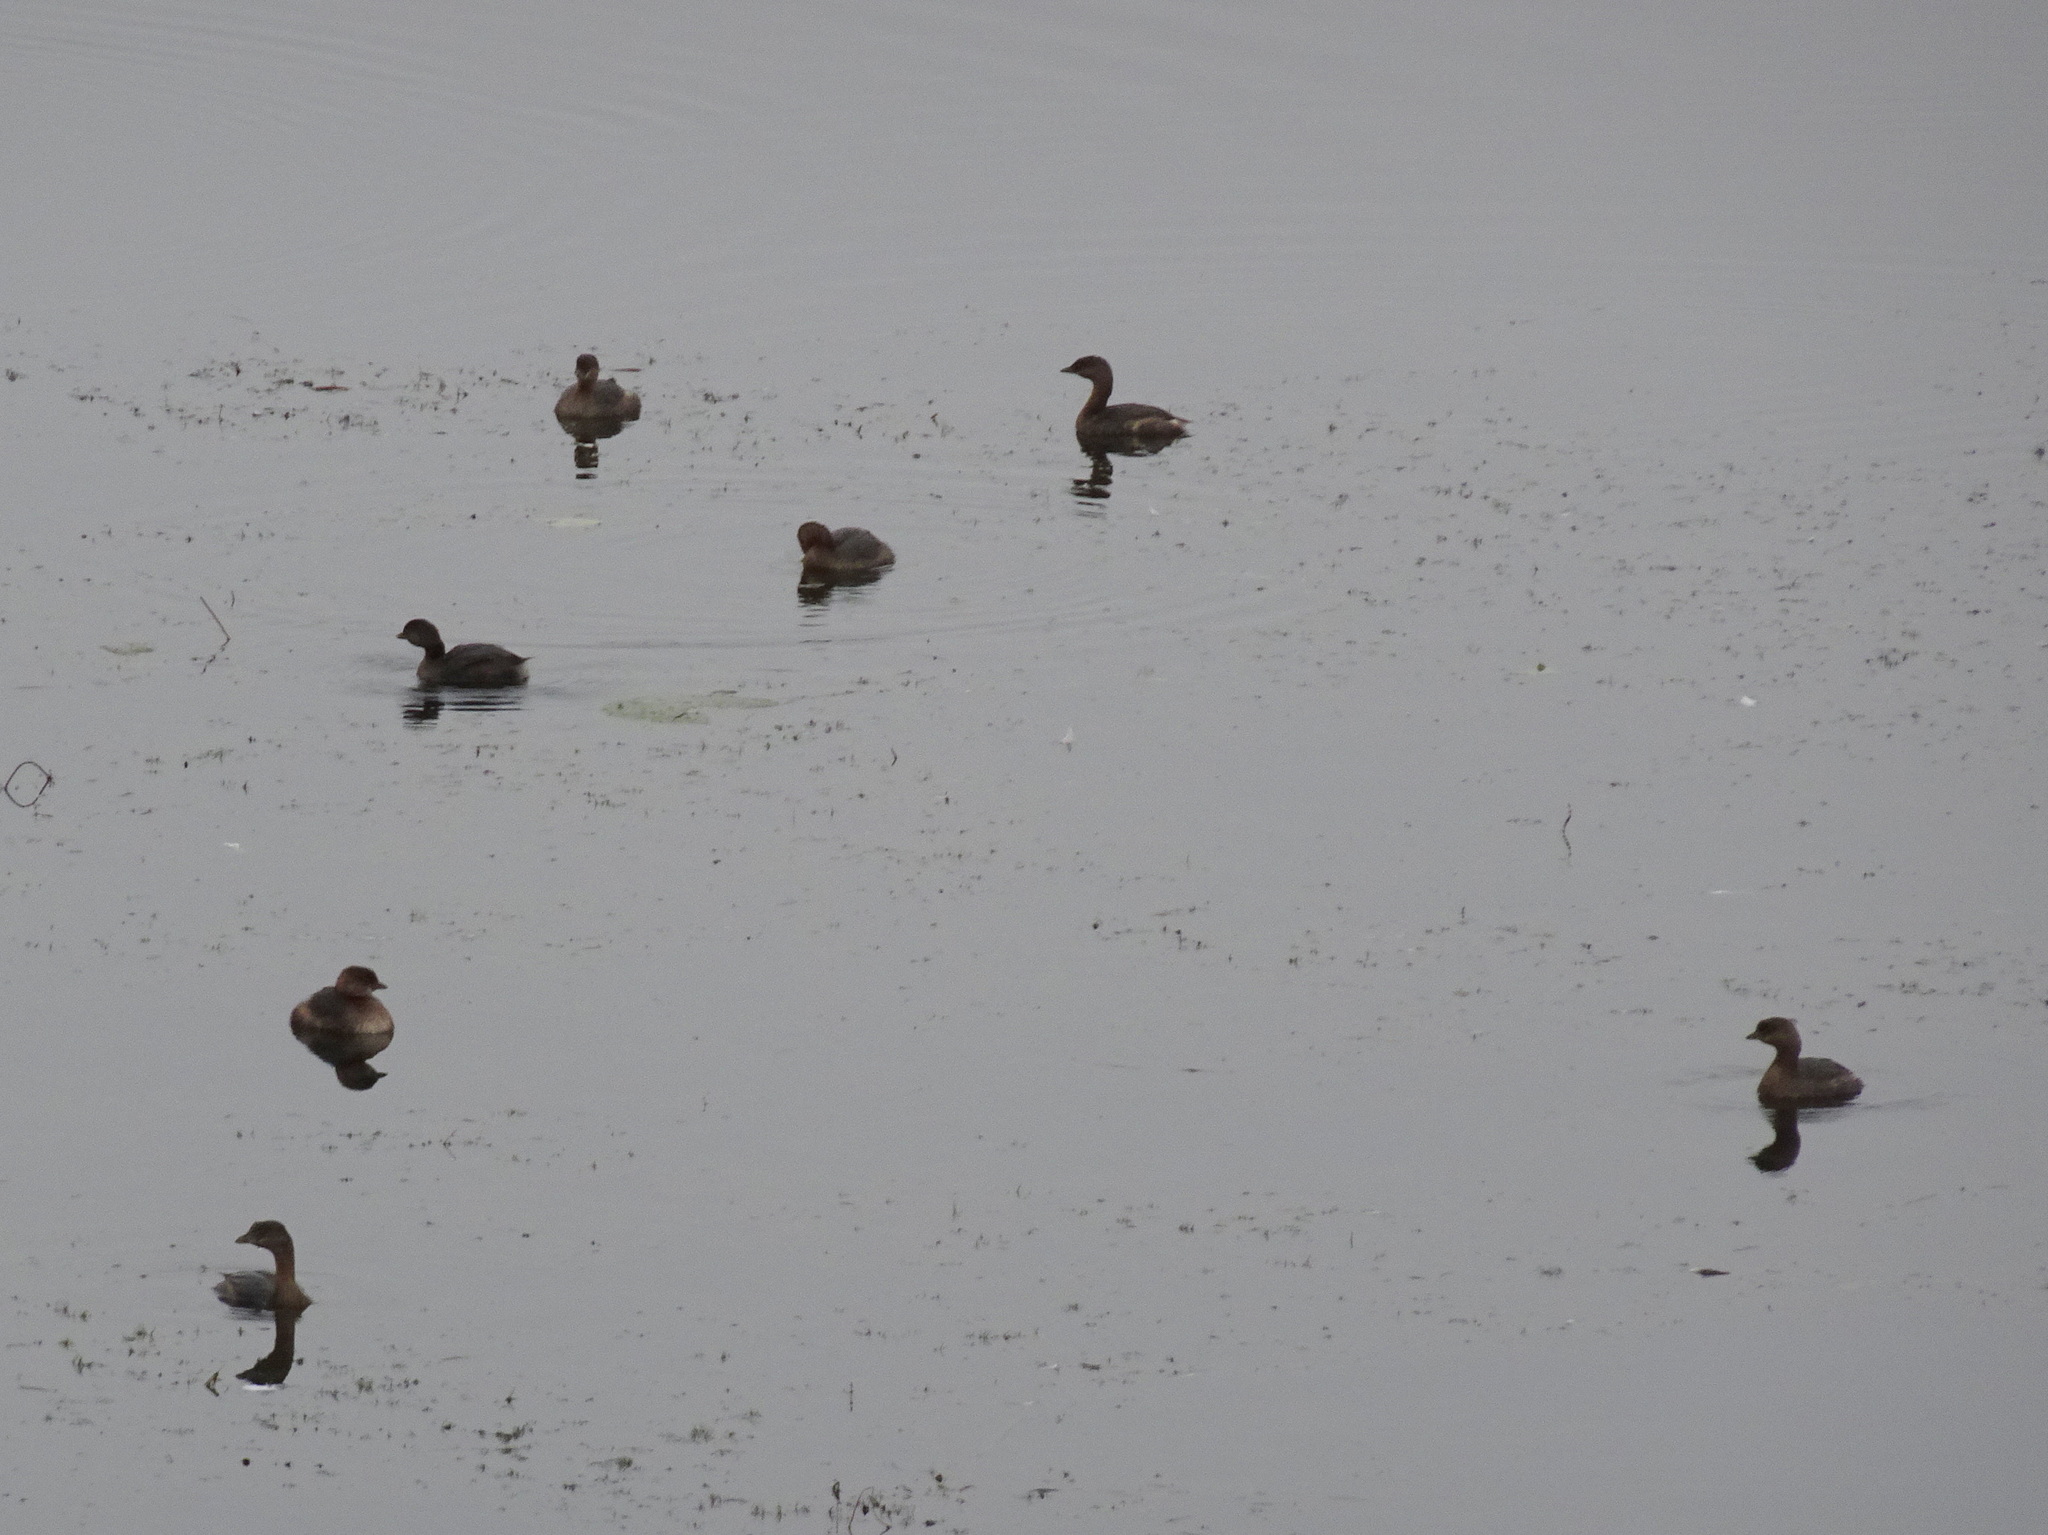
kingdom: Animalia
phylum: Chordata
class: Aves
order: Podicipediformes
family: Podicipedidae
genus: Podilymbus
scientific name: Podilymbus podiceps
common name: Pied-billed grebe
